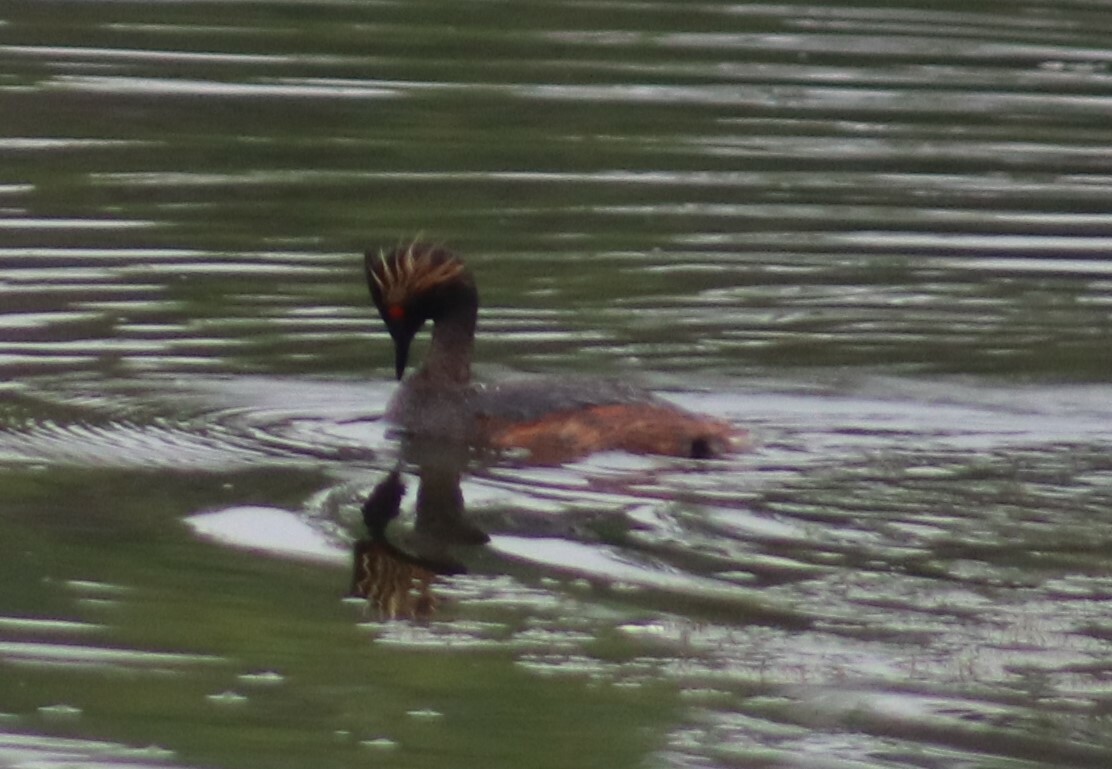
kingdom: Animalia
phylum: Chordata
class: Aves
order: Podicipediformes
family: Podicipedidae
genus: Podiceps
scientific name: Podiceps nigricollis
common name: Black-necked grebe
